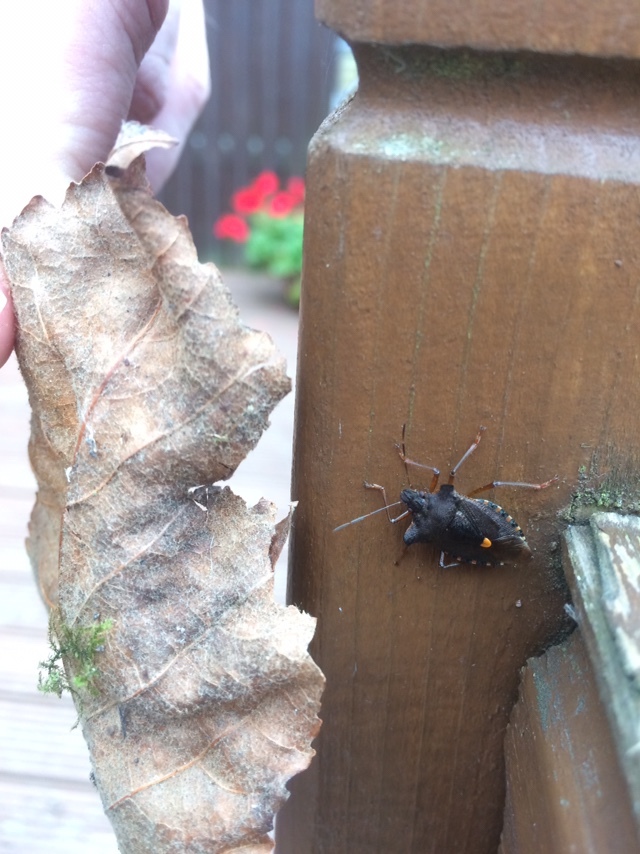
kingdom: Animalia
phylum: Arthropoda
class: Insecta
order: Hemiptera
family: Pentatomidae
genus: Pentatoma
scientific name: Pentatoma rufipes
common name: Forest bug
